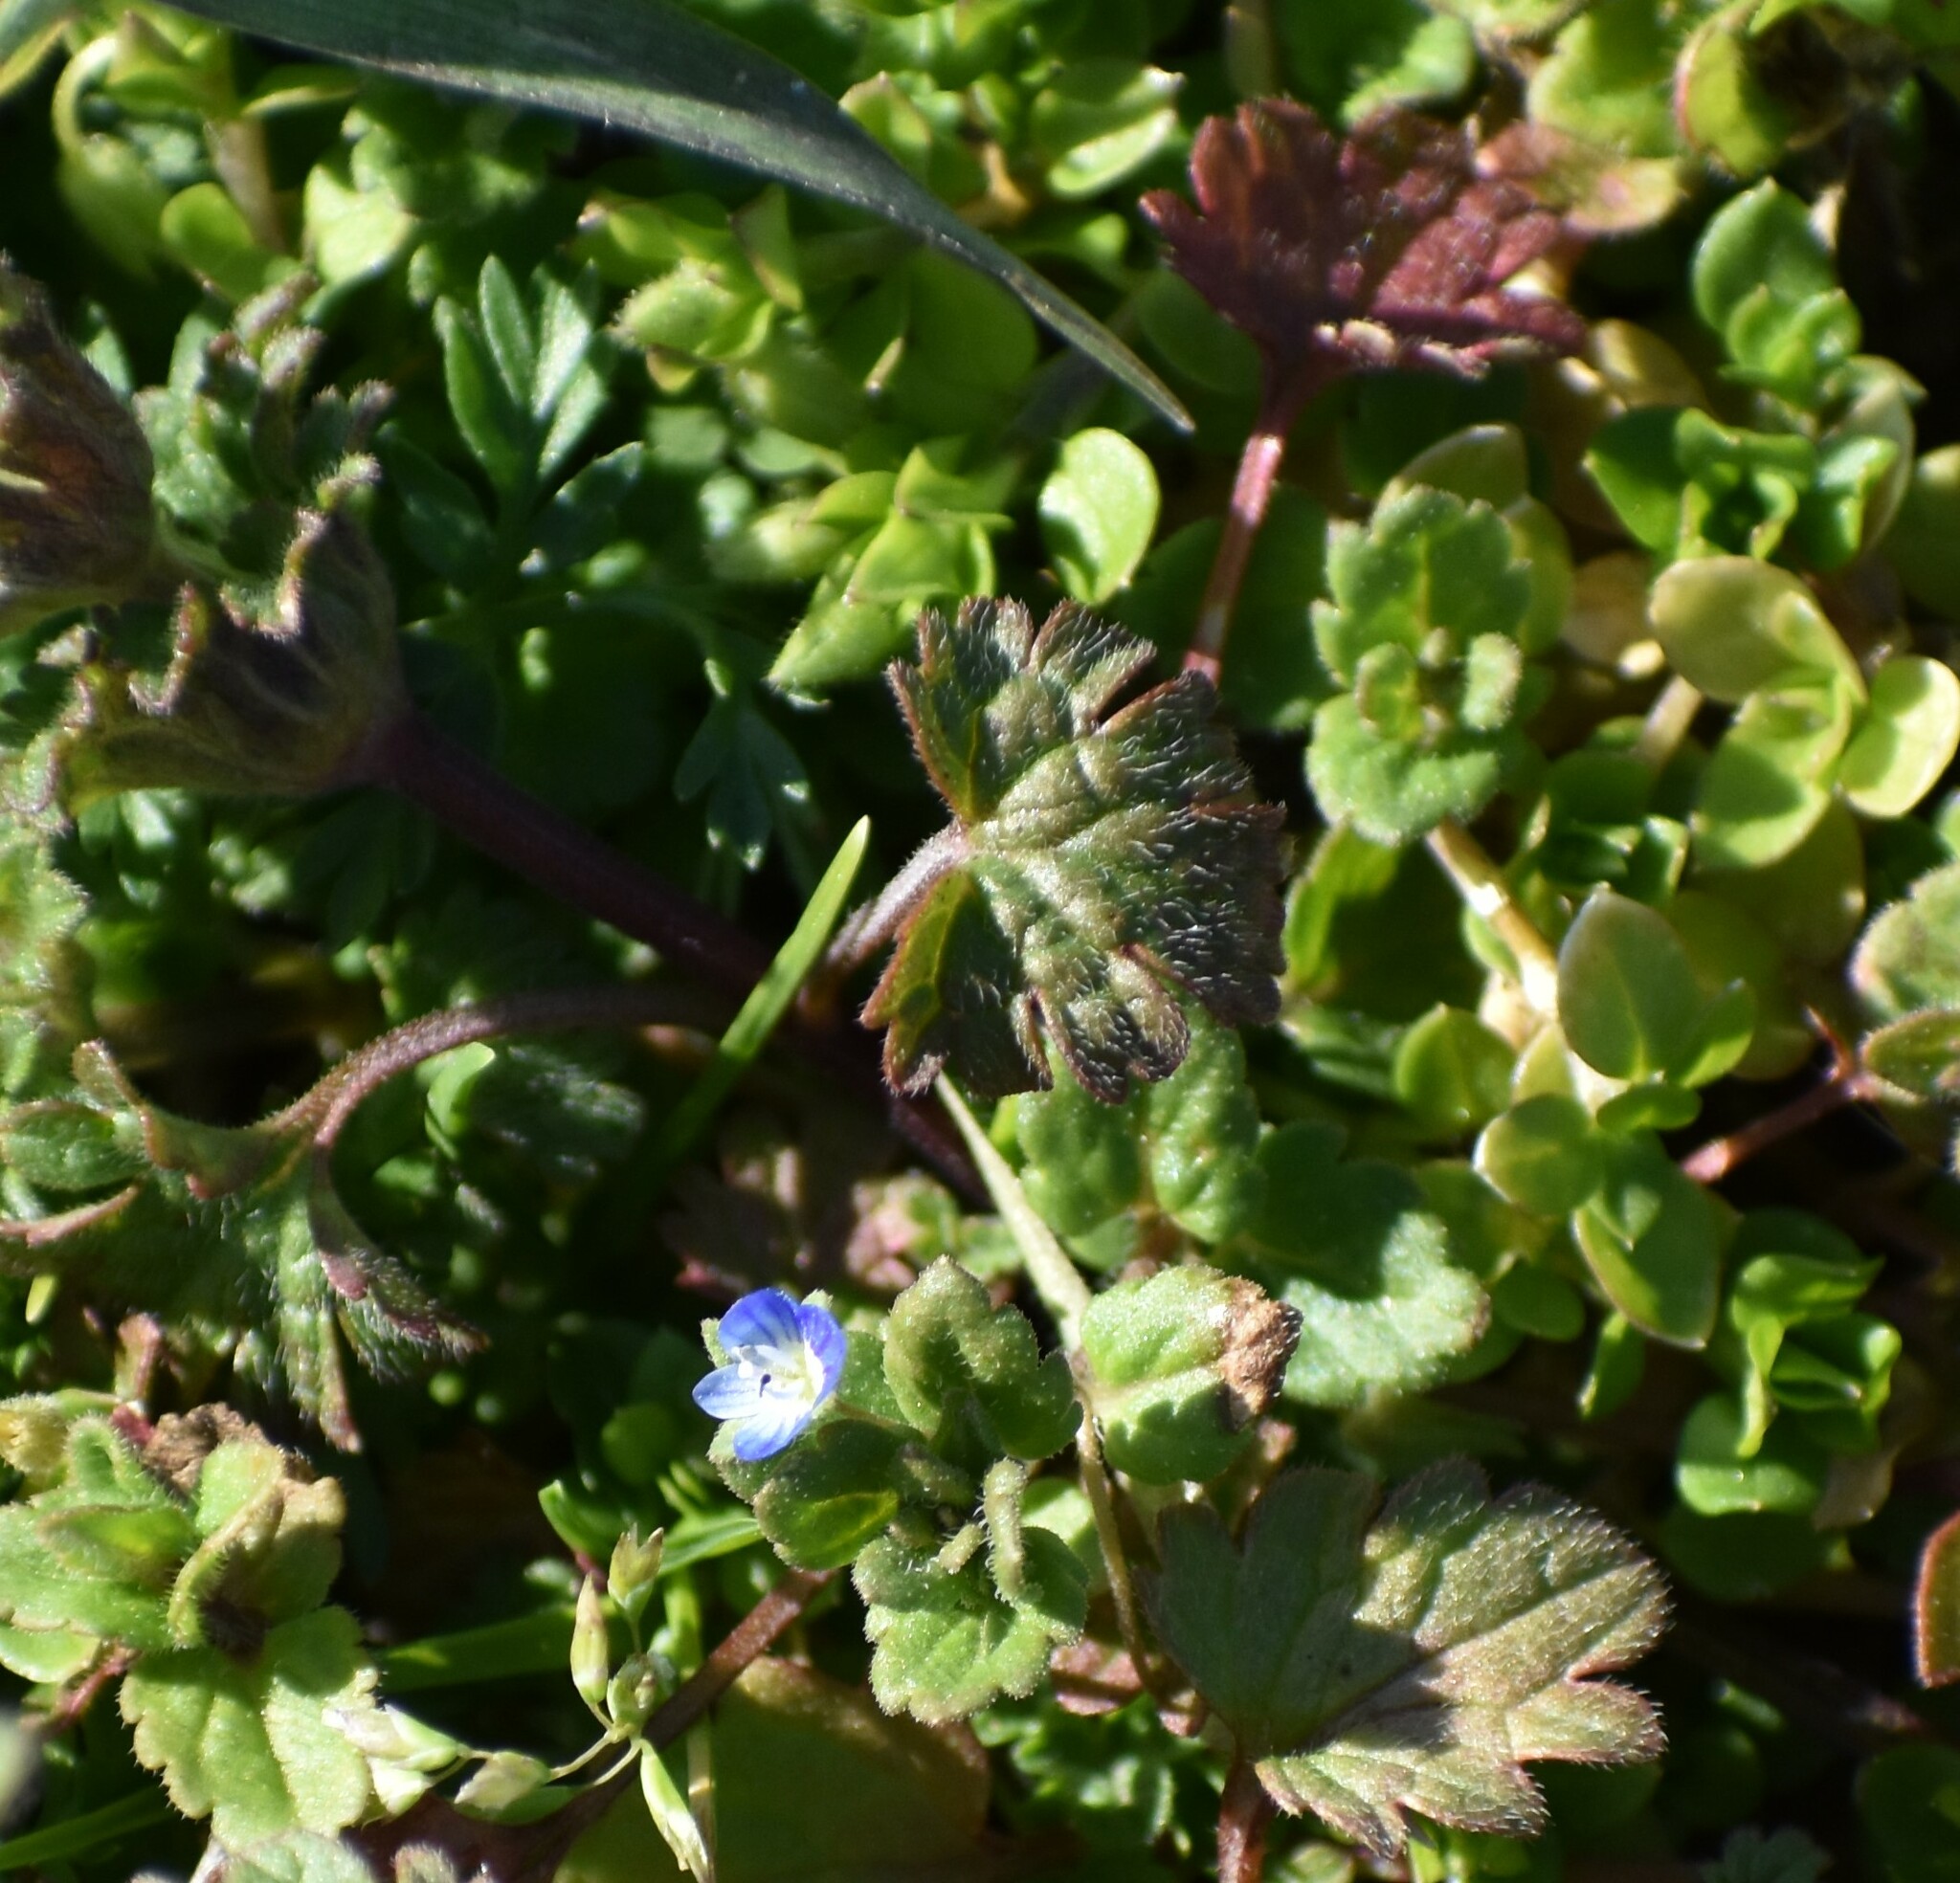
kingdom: Plantae
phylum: Tracheophyta
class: Magnoliopsida
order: Lamiales
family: Plantaginaceae
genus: Veronica
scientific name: Veronica polita
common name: Grey field-speedwell
